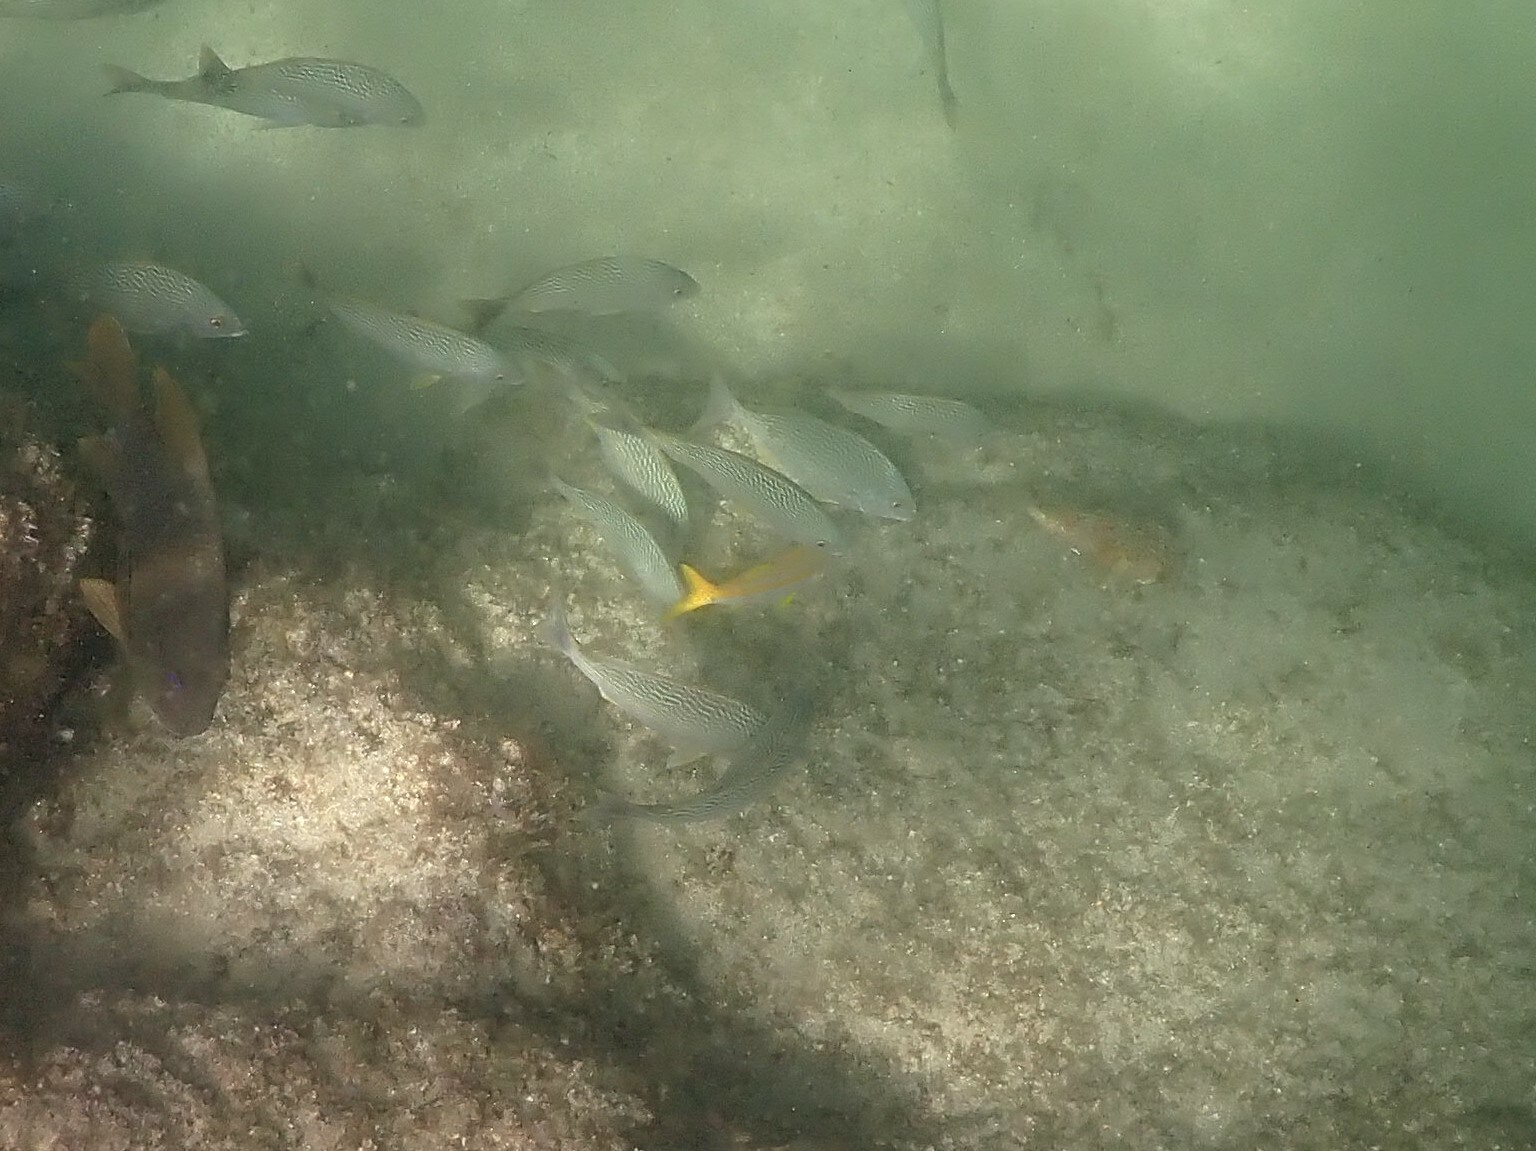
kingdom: Animalia
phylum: Chordata
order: Perciformes
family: Mullidae
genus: Mulloidichthys
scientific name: Mulloidichthys dentatus
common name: Mexican goatfish
